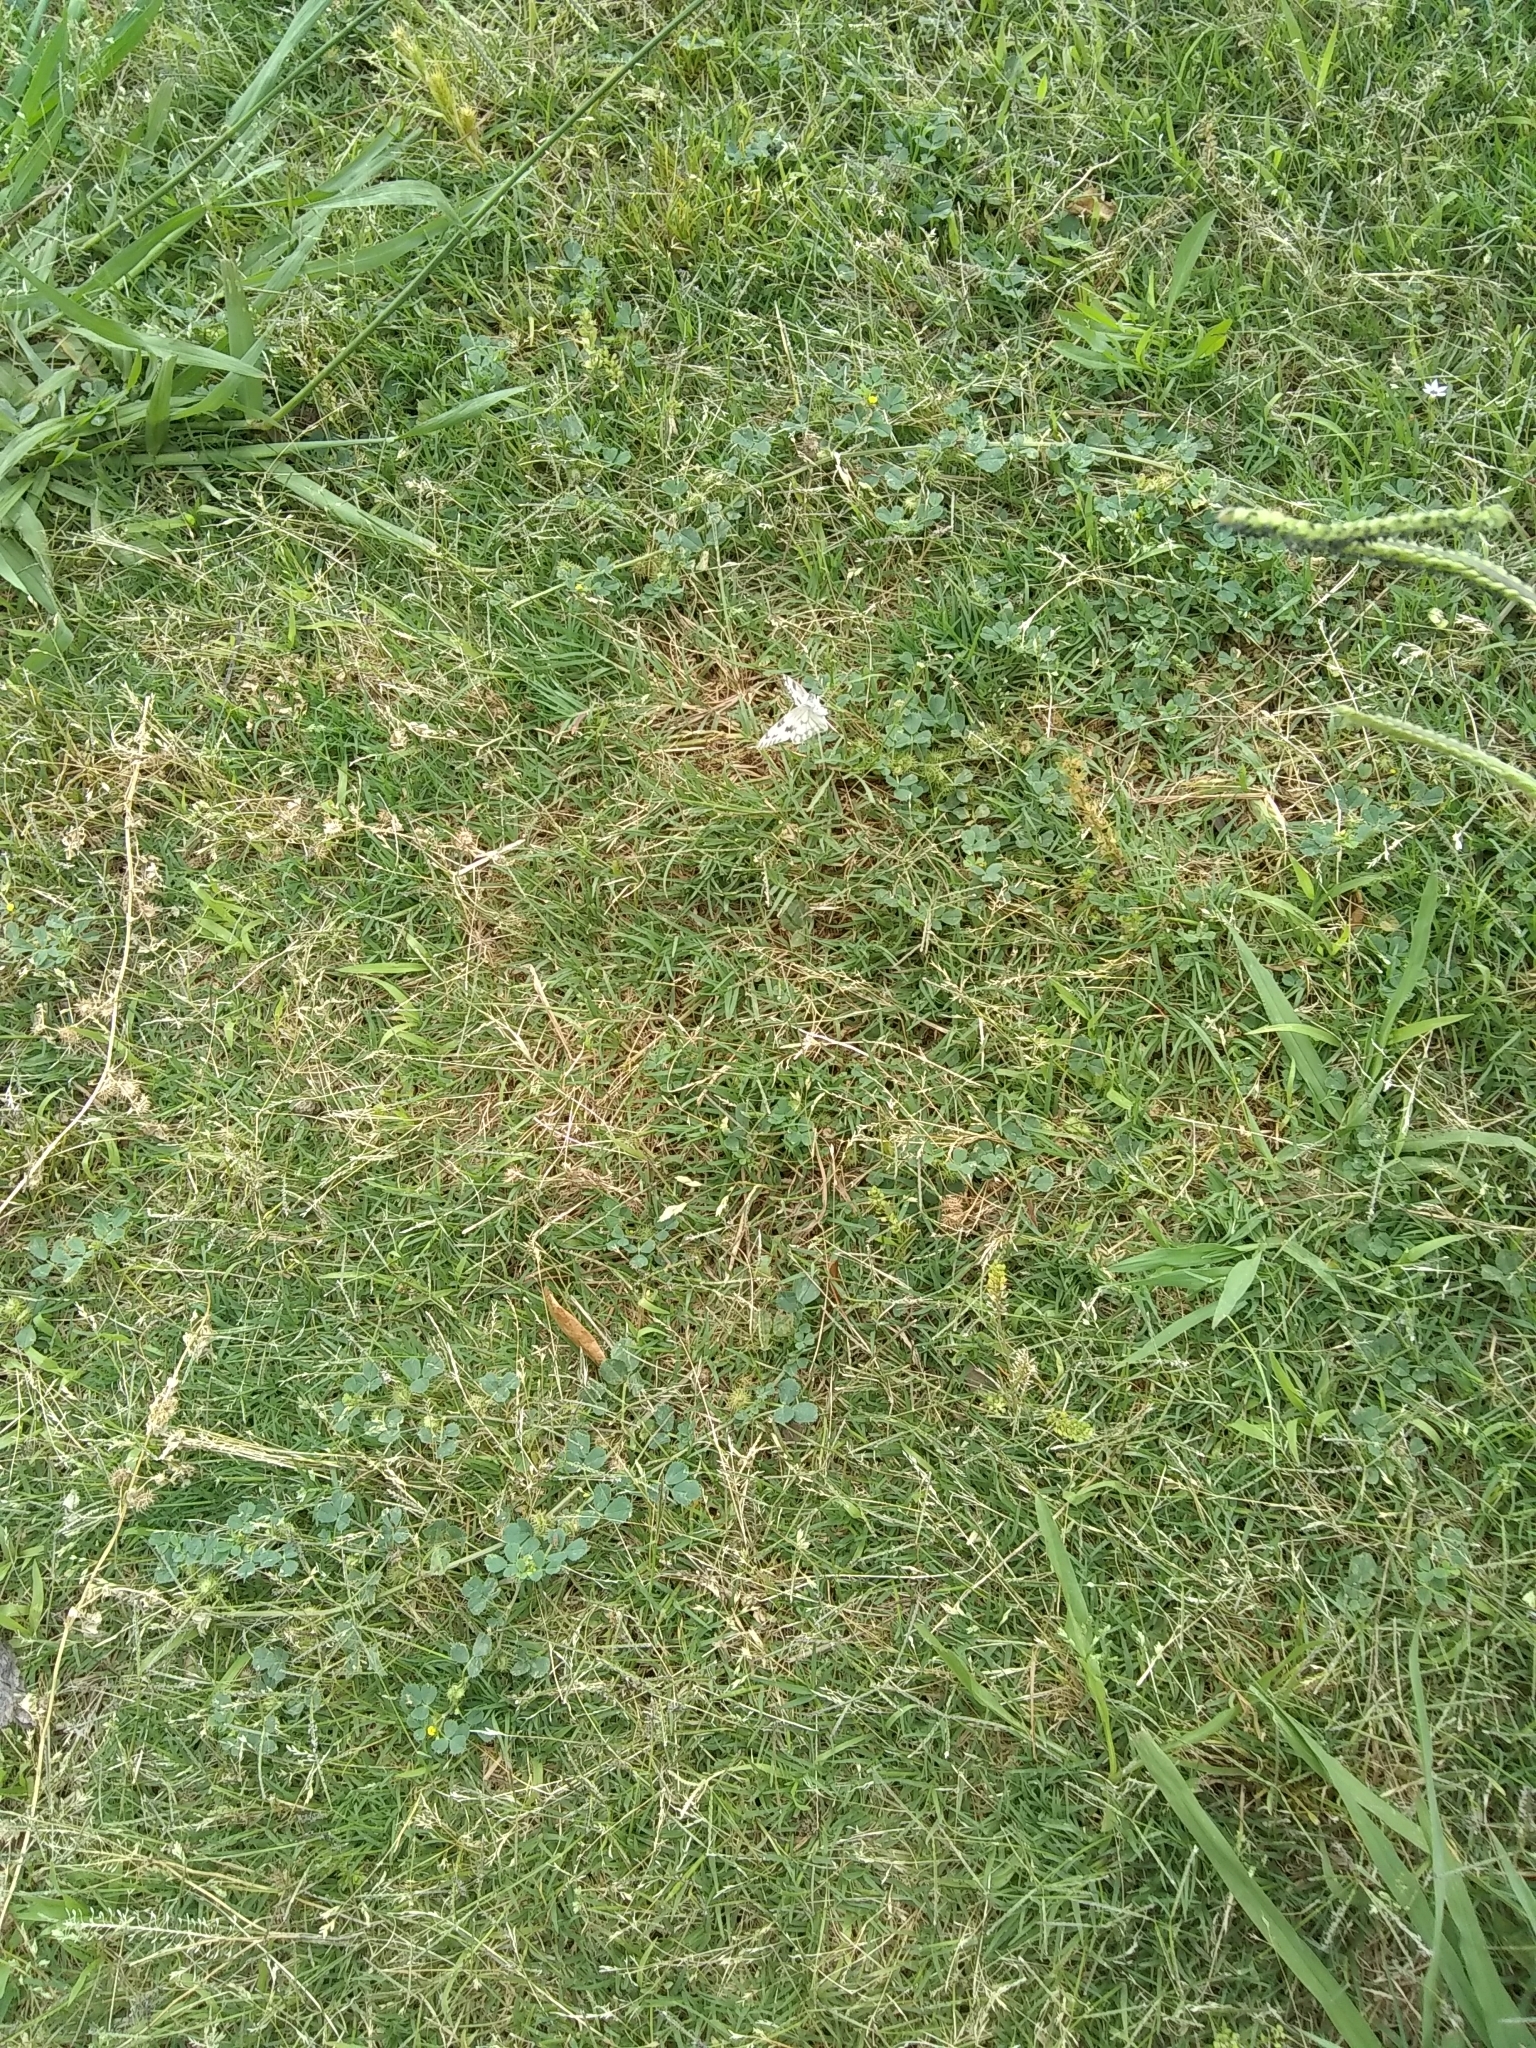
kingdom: Animalia
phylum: Arthropoda
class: Insecta
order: Lepidoptera
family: Pieridae
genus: Pontia
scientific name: Pontia protodice
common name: Checkered white
